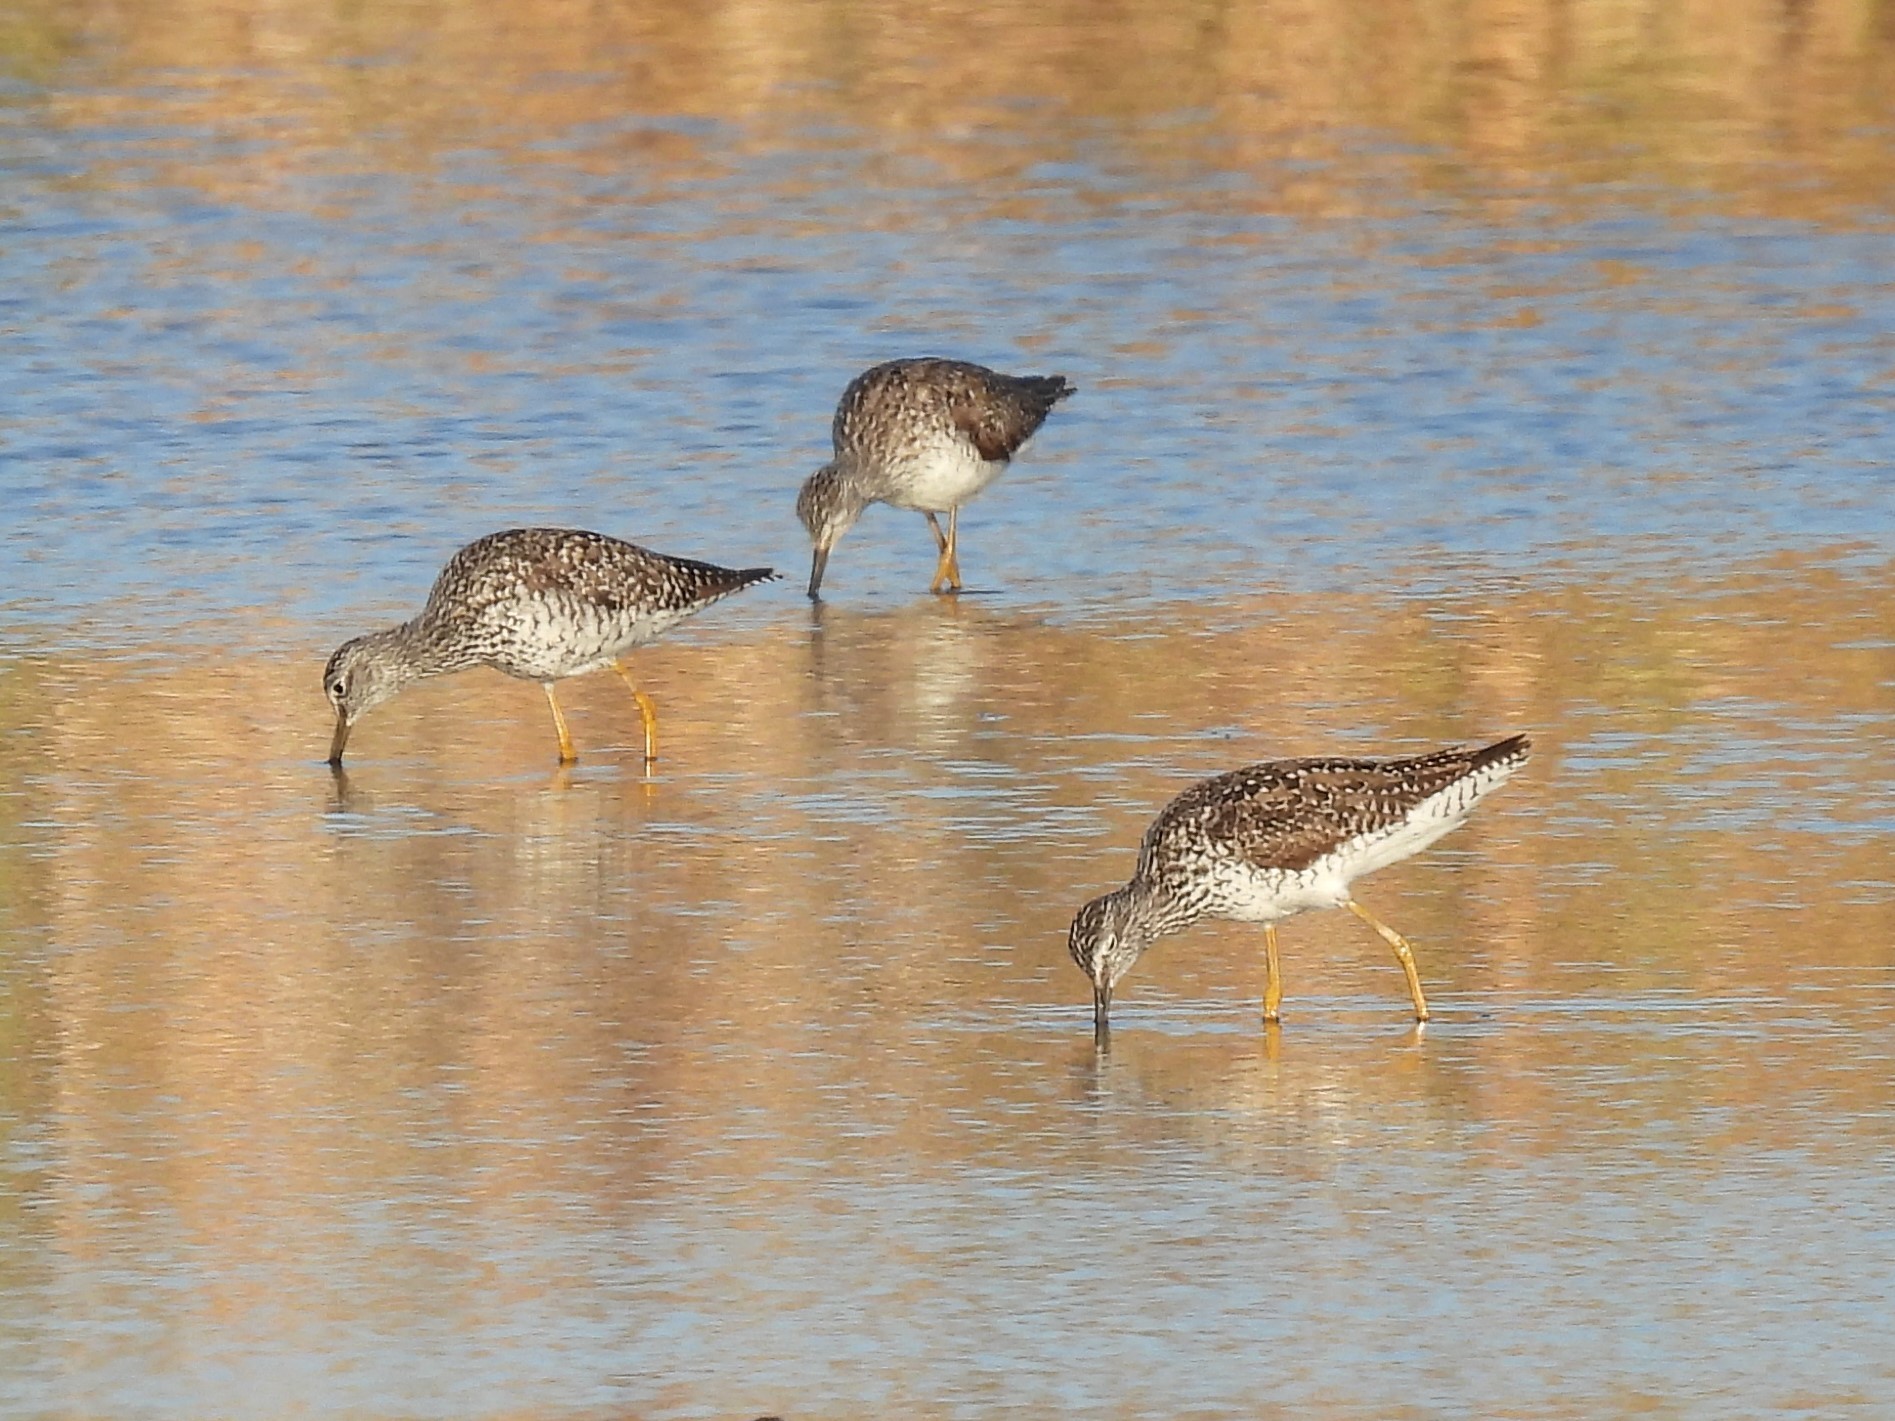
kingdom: Animalia
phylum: Chordata
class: Aves
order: Charadriiformes
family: Scolopacidae
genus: Tringa
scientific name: Tringa melanoleuca
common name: Greater yellowlegs
